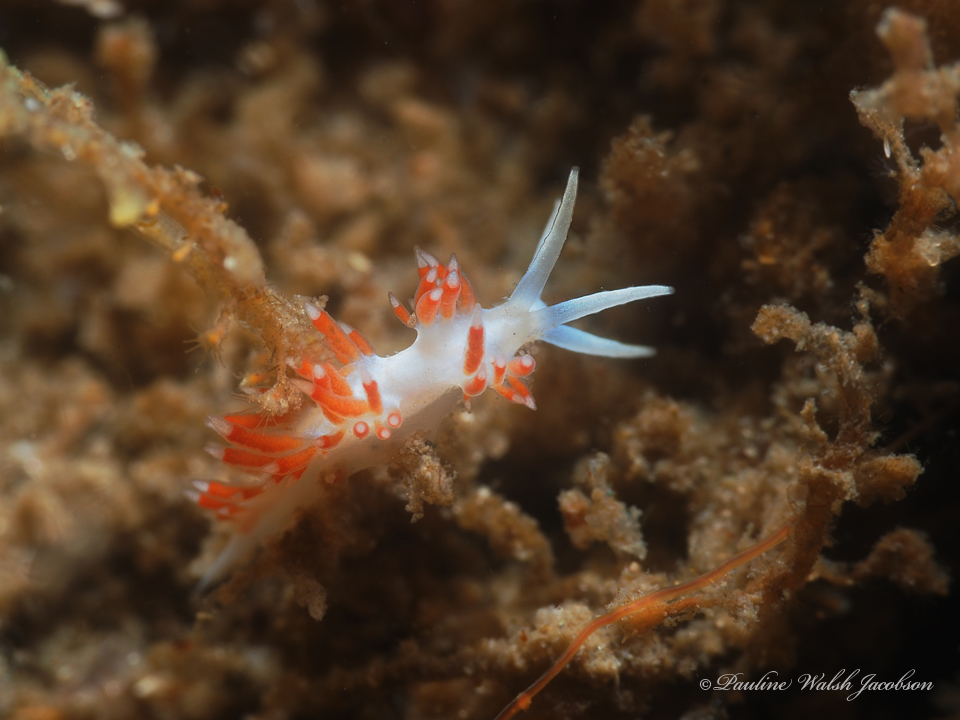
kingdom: Animalia
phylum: Mollusca
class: Gastropoda
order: Nudibranchia
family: Flabellinidae
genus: Flabellina
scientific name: Flabellina dushia
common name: Dushia flabellina
